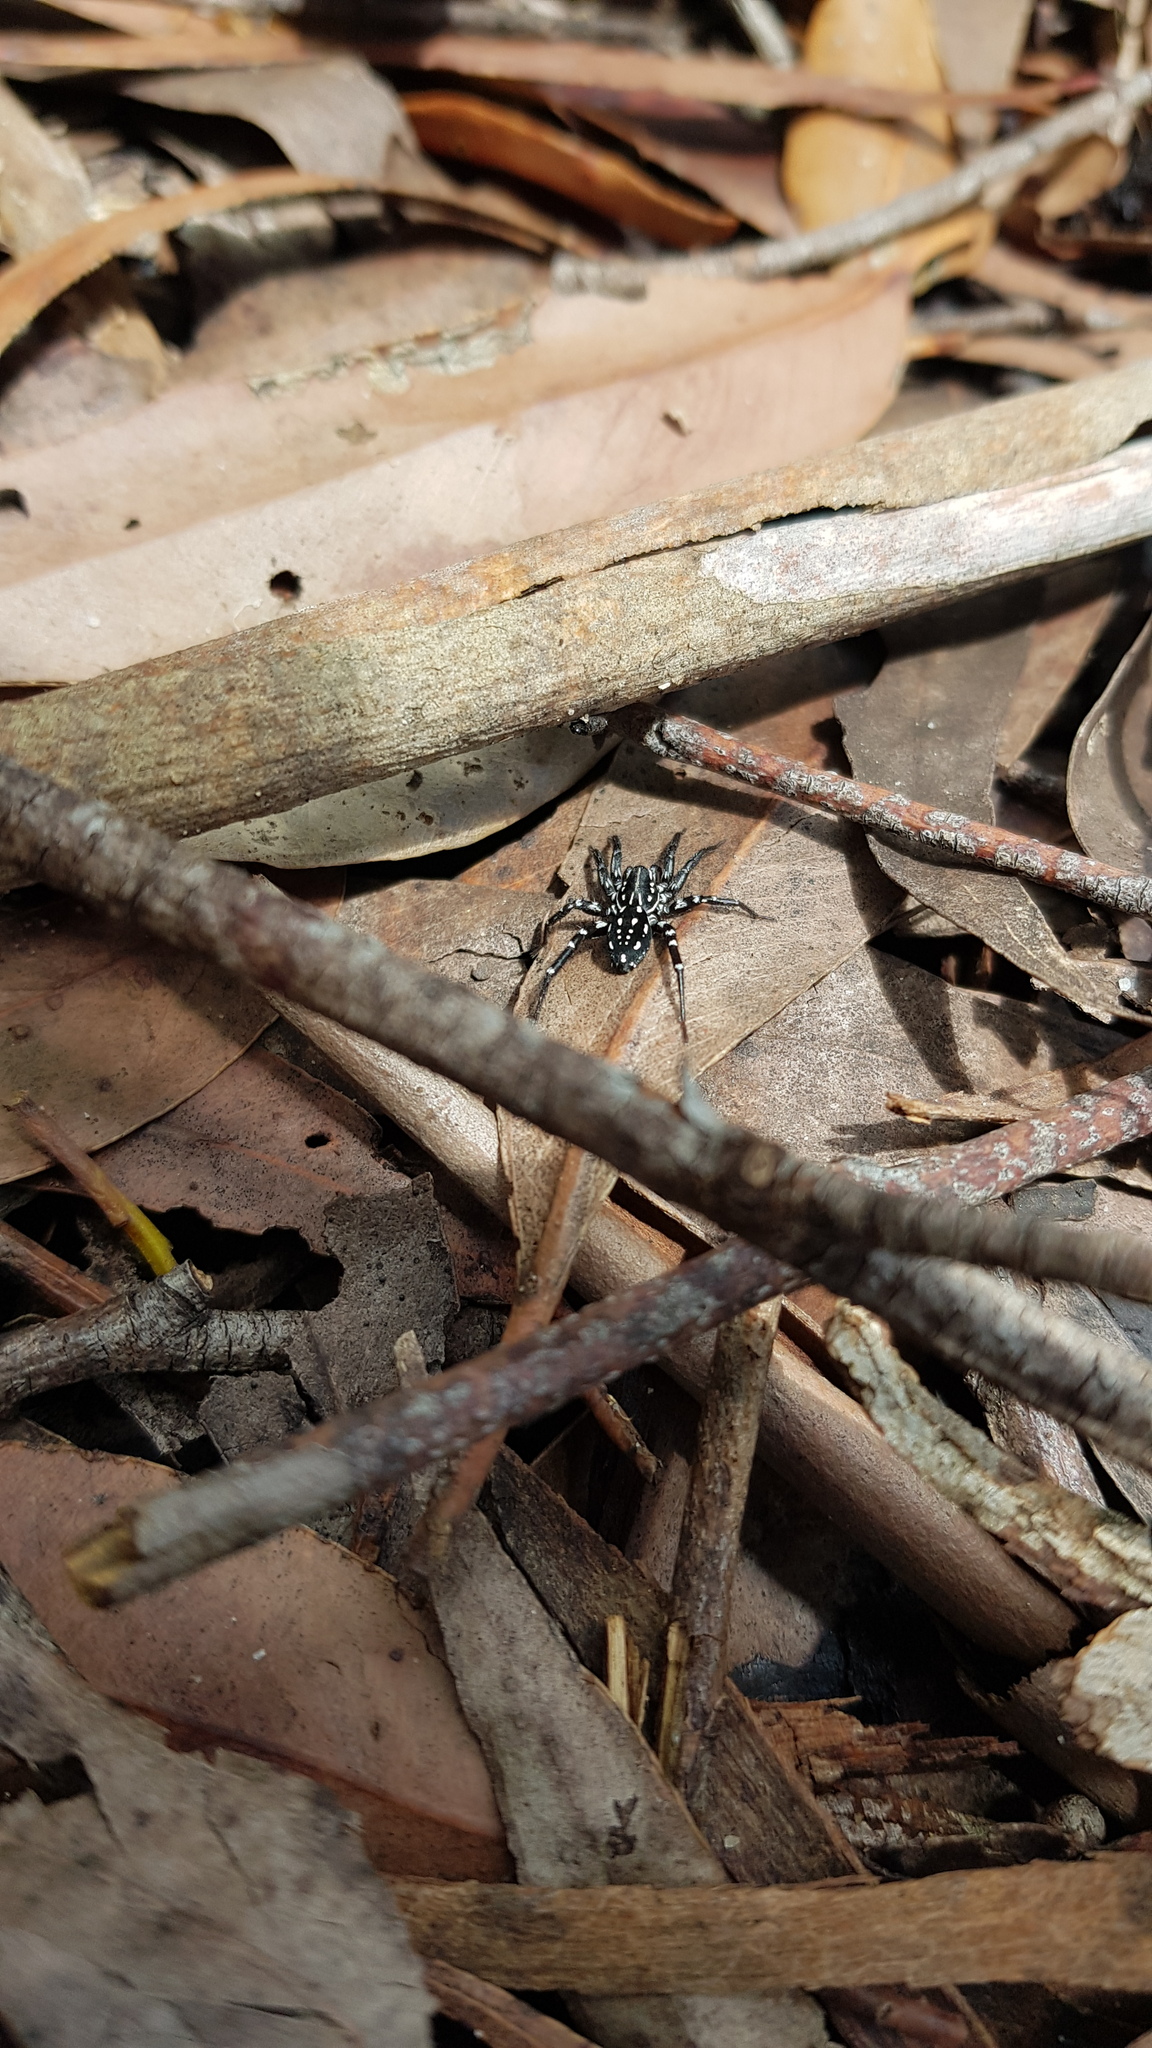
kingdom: Animalia
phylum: Arthropoda
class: Arachnida
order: Araneae
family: Corinnidae
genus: Nyssus
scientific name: Nyssus albopunctatus
